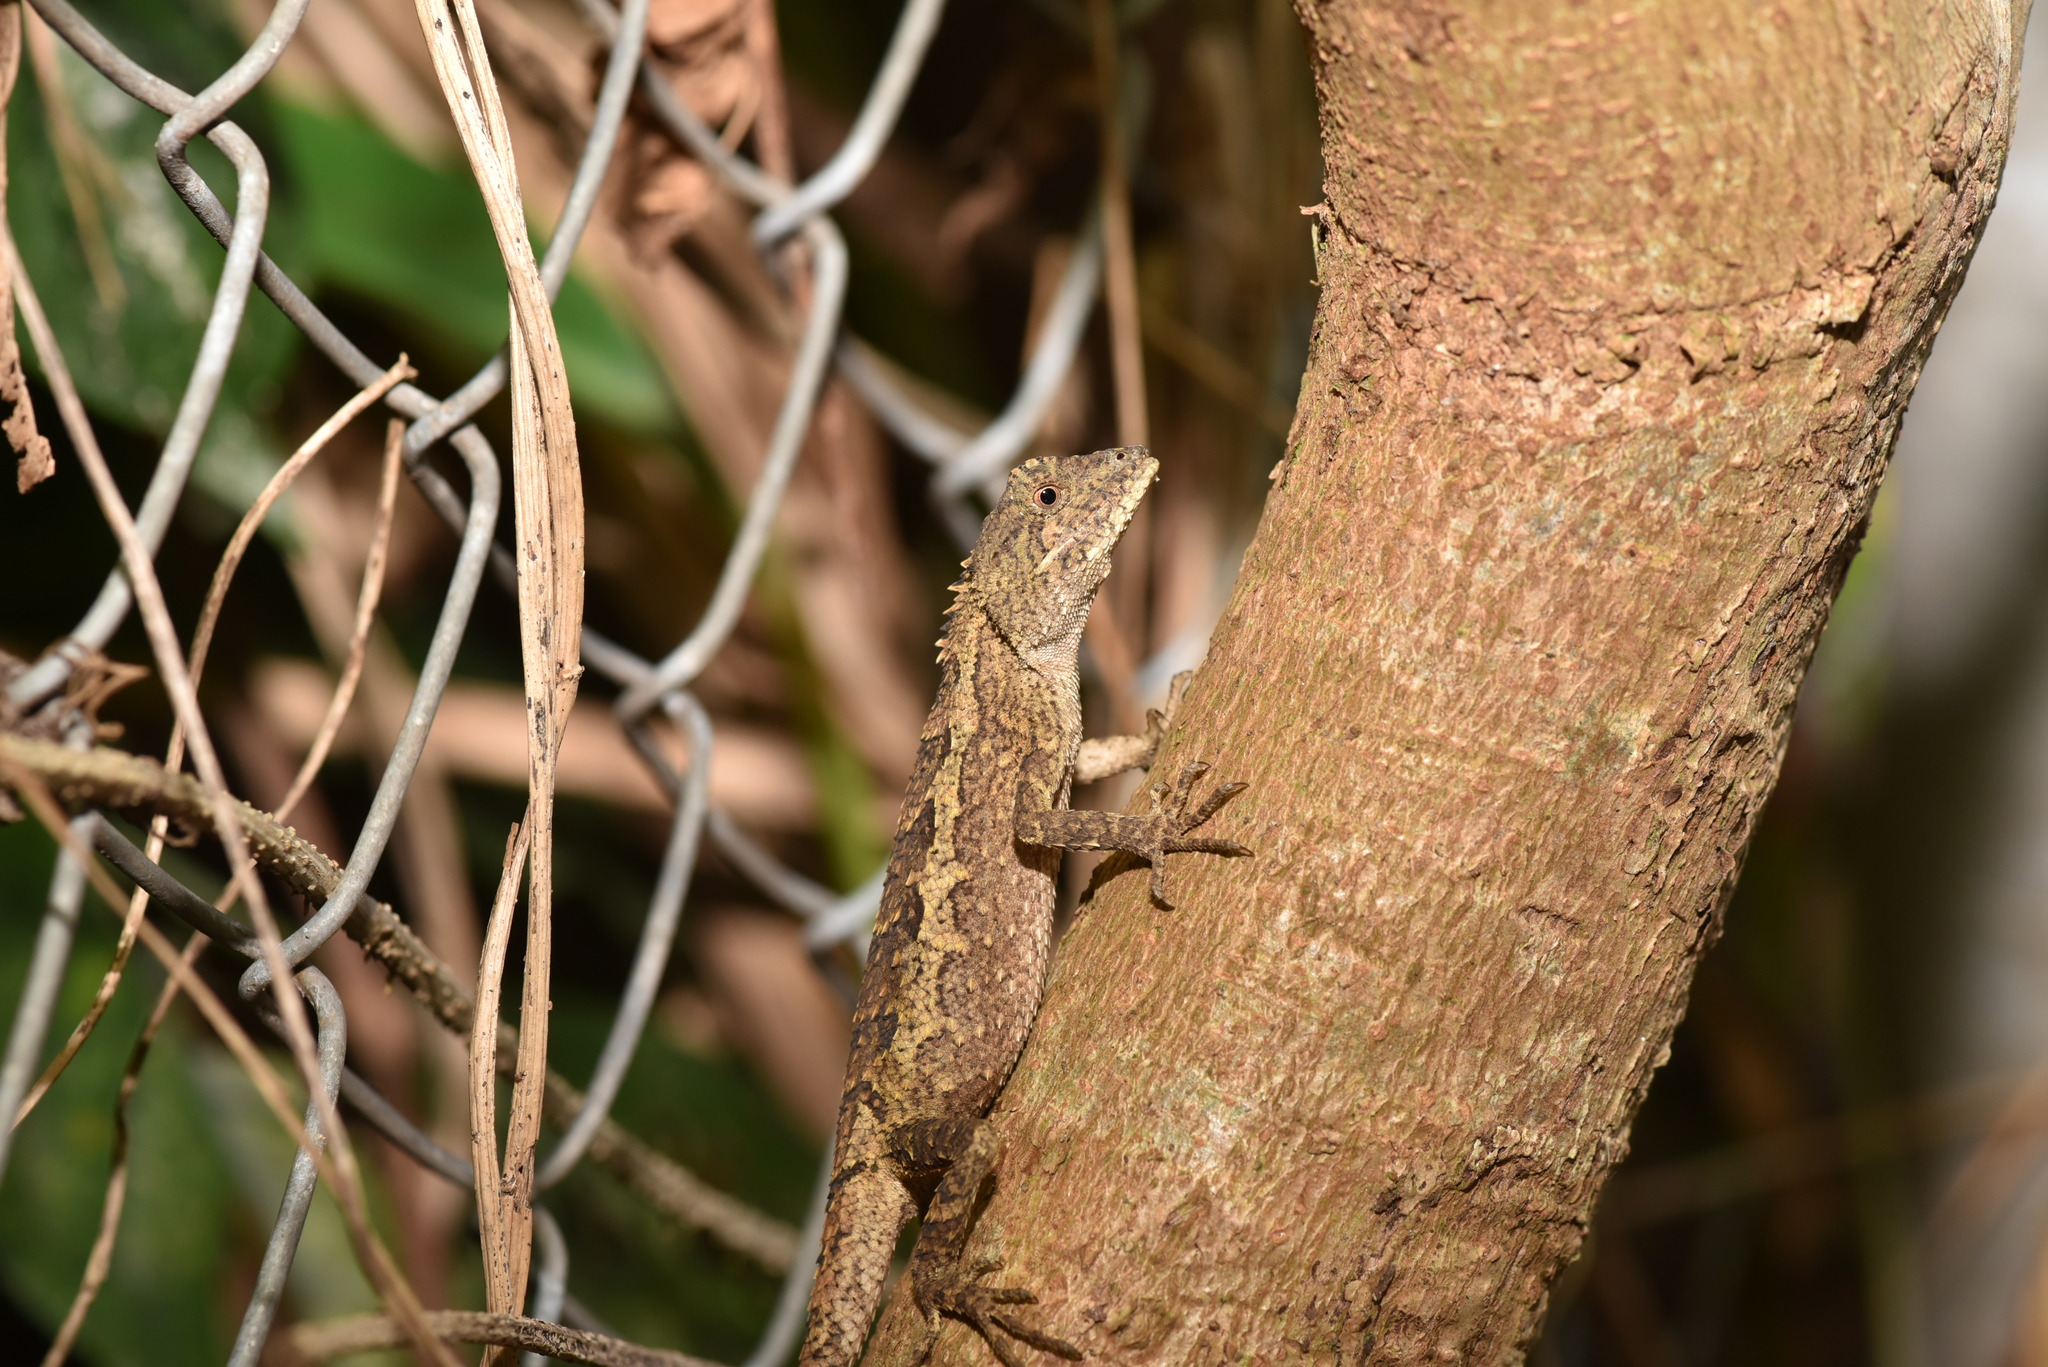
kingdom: Animalia
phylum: Chordata
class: Squamata
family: Agamidae
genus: Diploderma
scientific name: Diploderma swinhonis
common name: Taiwan japalure
